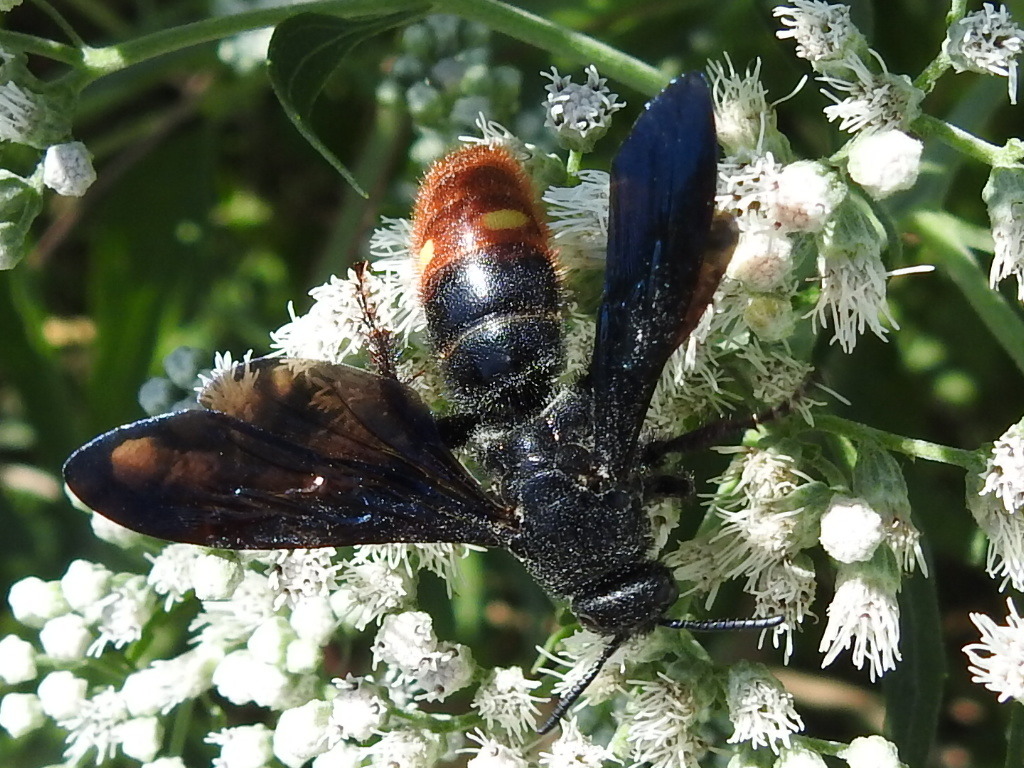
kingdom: Animalia
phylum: Arthropoda
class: Insecta
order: Hymenoptera
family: Scoliidae
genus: Scolia
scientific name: Scolia dubia
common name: Blue-winged scoliid wasp
